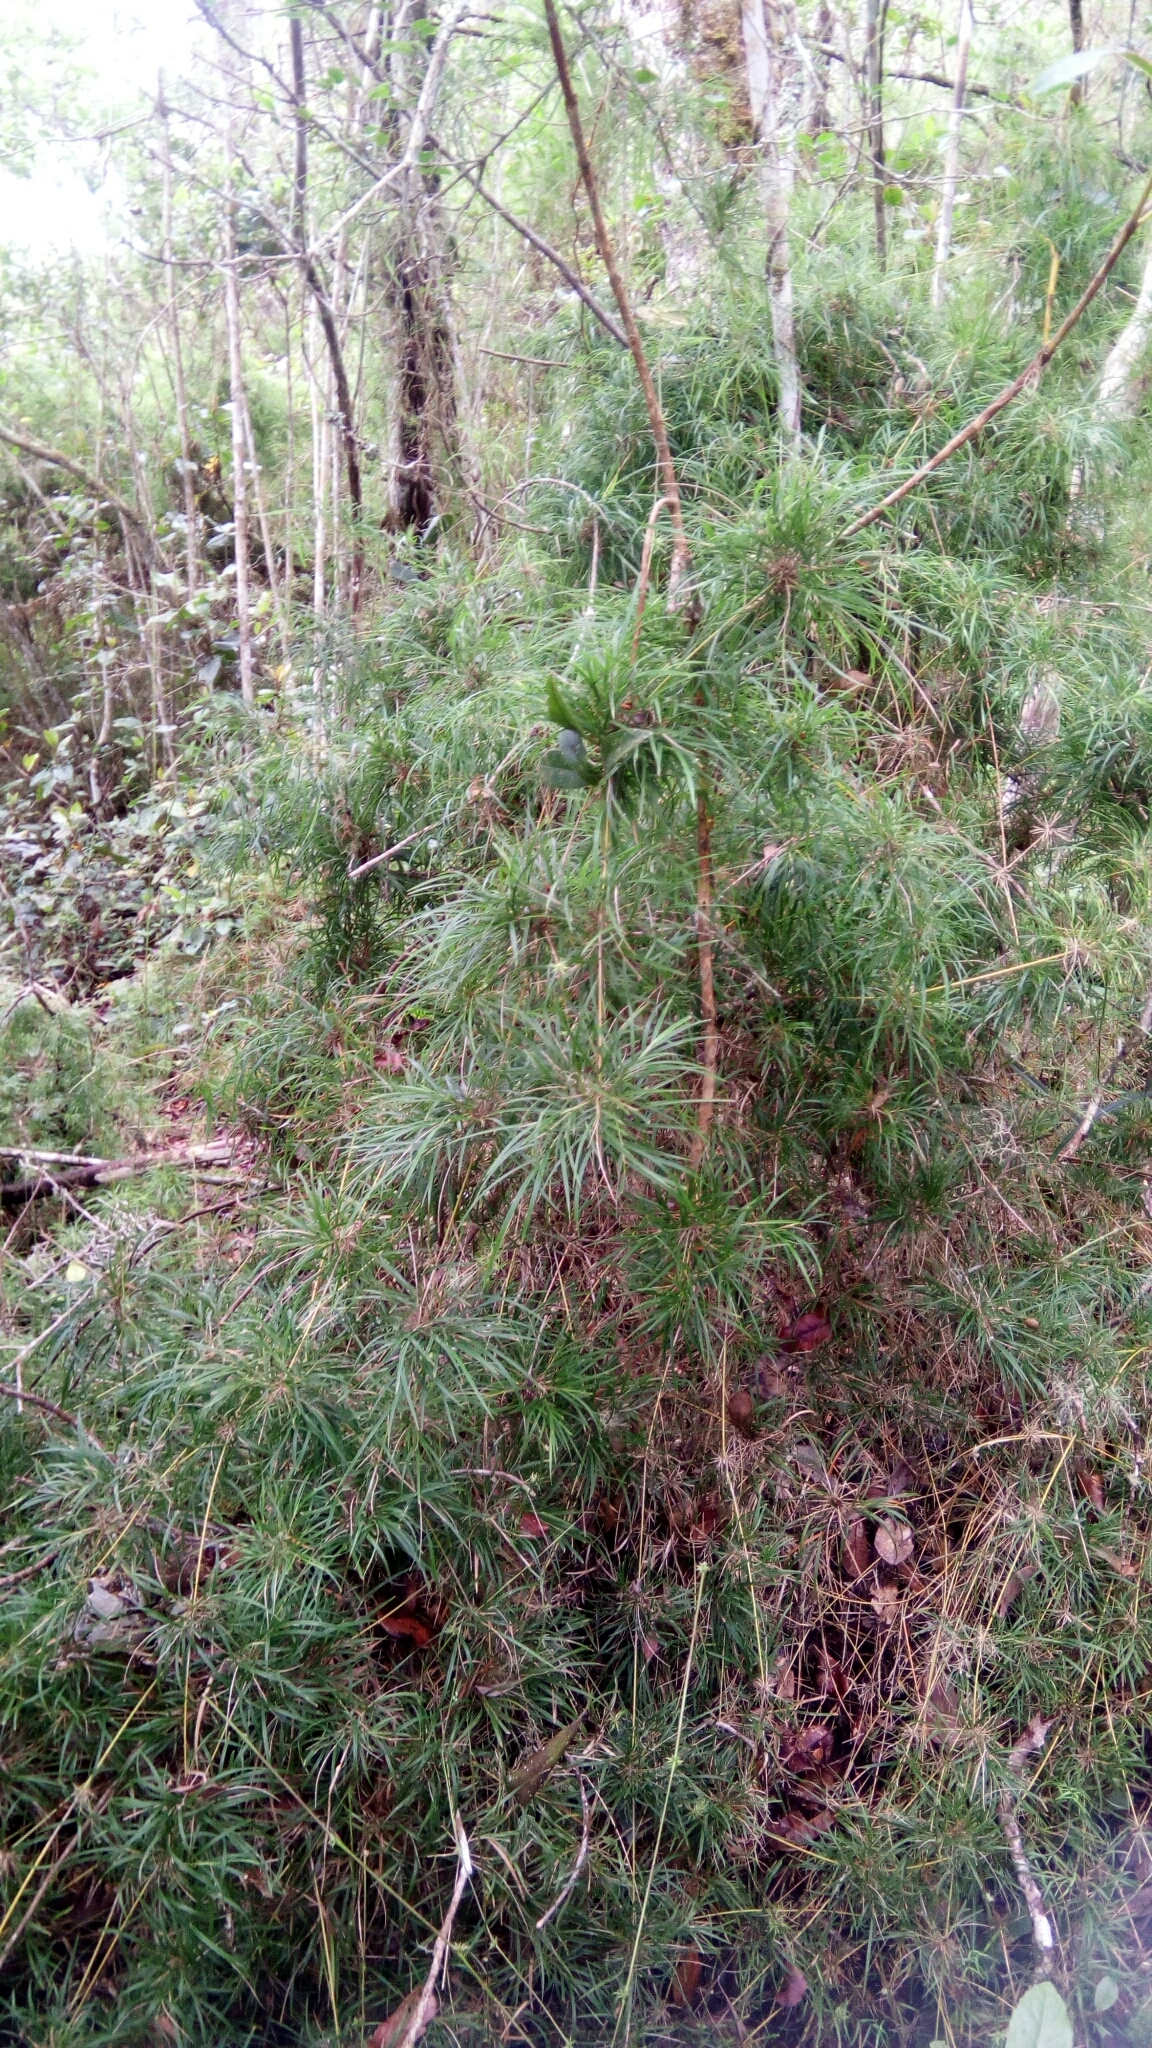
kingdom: Plantae
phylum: Tracheophyta
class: Liliopsida
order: Poales
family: Poaceae
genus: Nastus
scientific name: Nastus elongatus
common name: Spider bamboo
